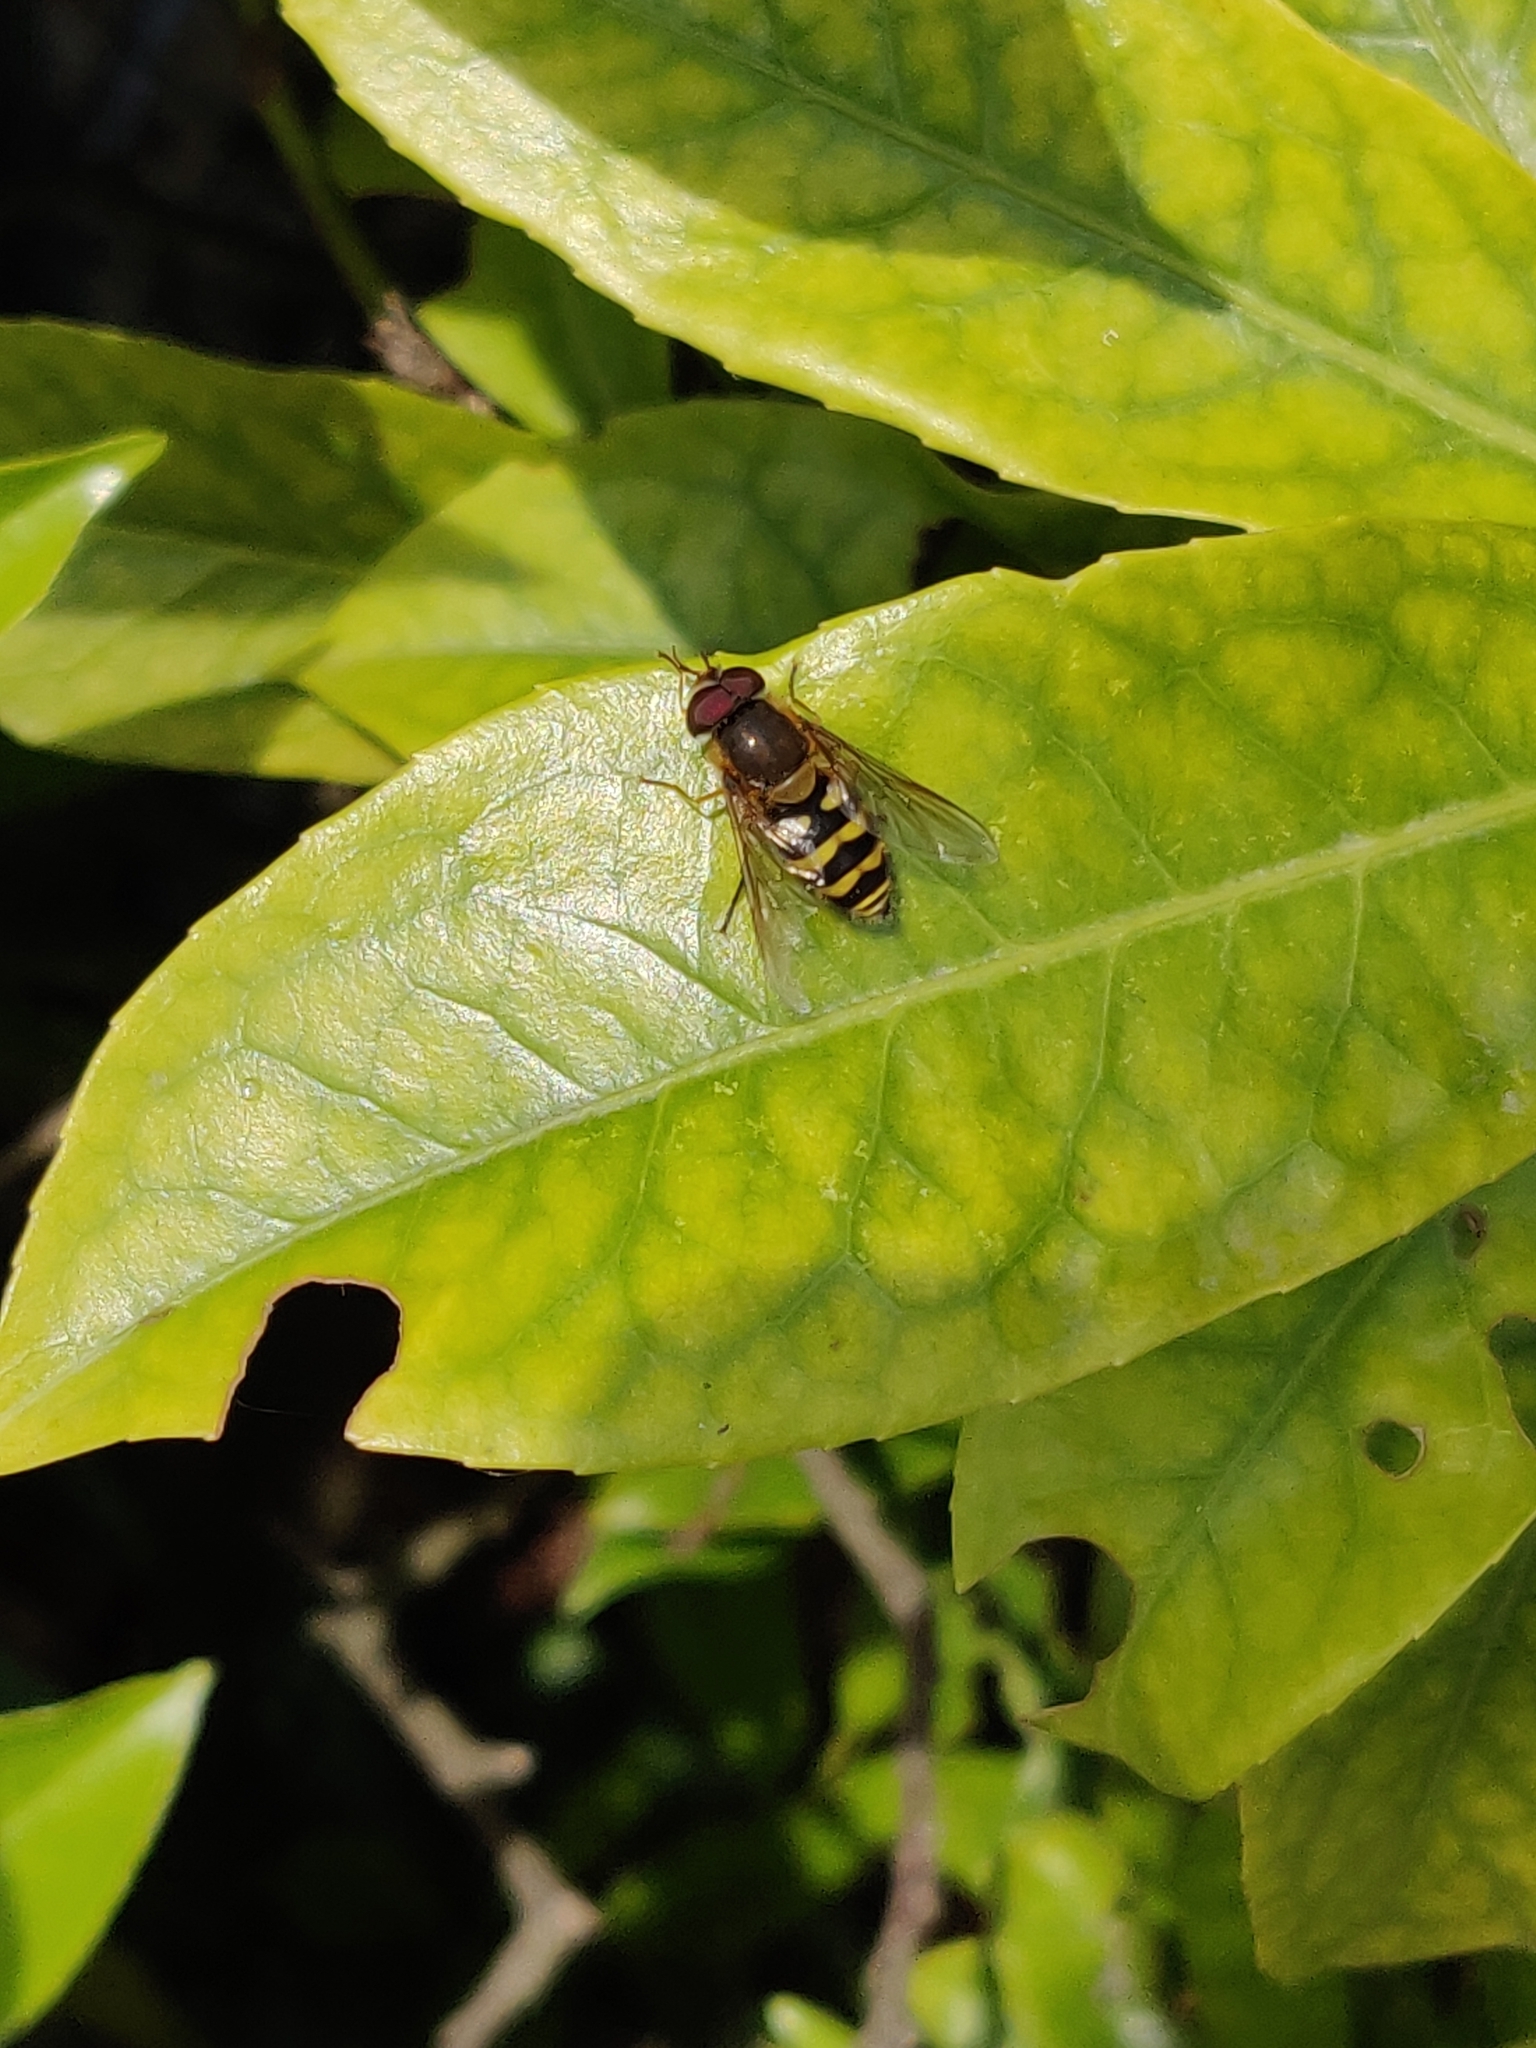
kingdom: Animalia
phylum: Arthropoda
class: Insecta
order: Diptera
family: Syrphidae
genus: Syrphus
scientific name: Syrphus
